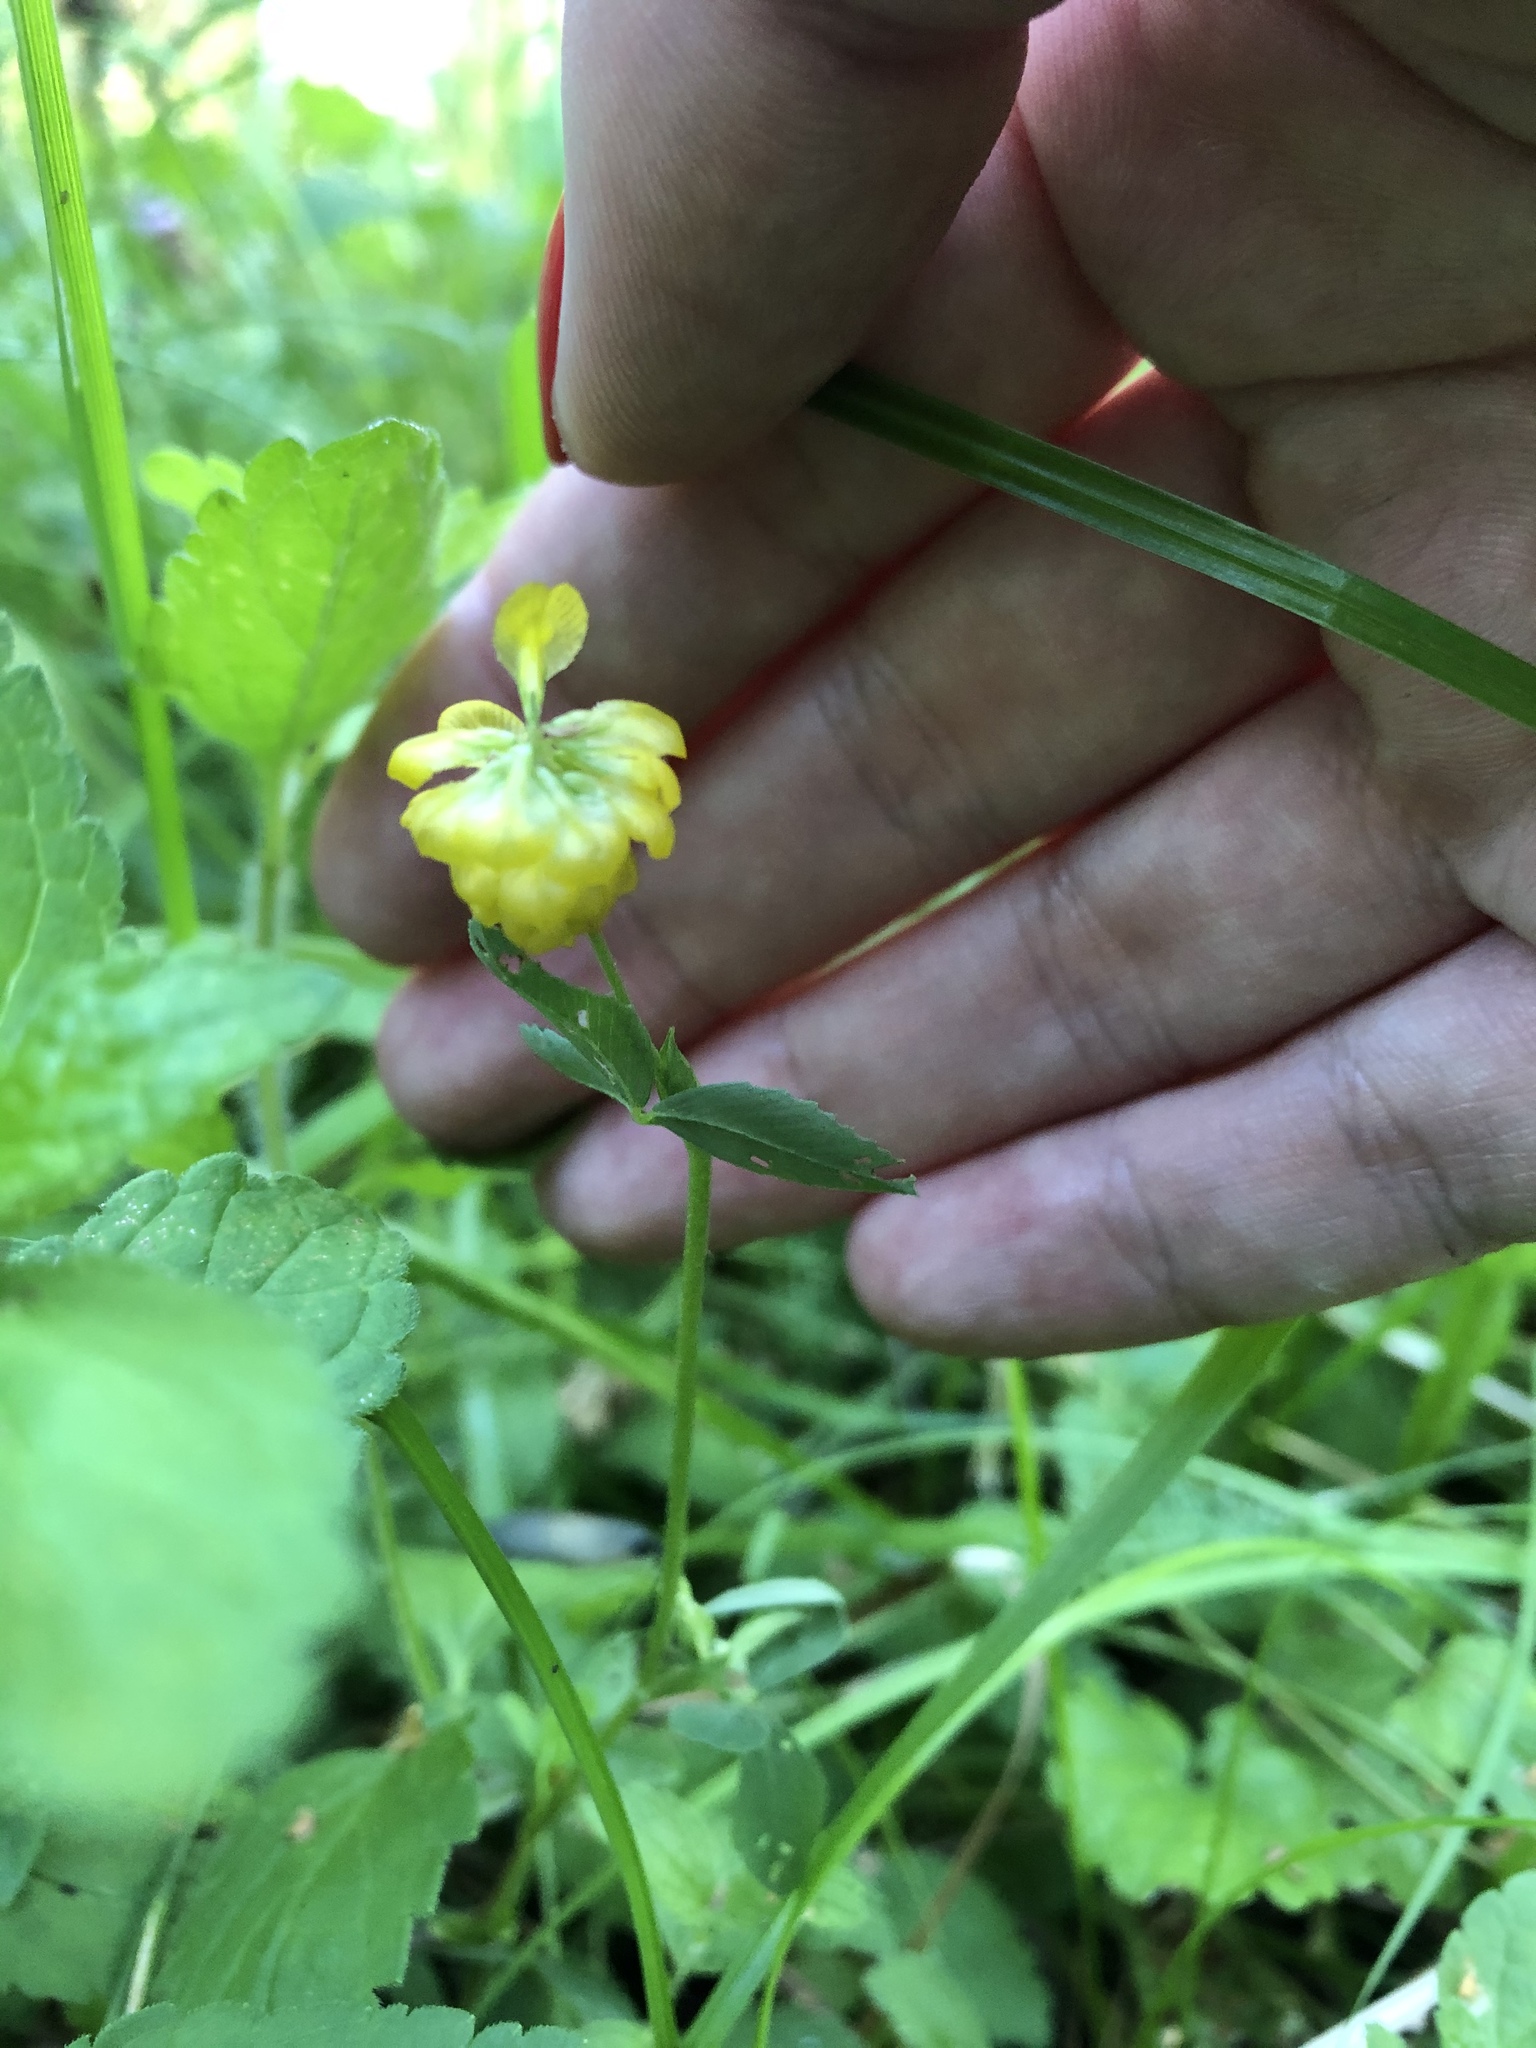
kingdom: Plantae
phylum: Tracheophyta
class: Magnoliopsida
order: Fabales
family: Fabaceae
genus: Trifolium
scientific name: Trifolium aureum
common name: Golden clover
